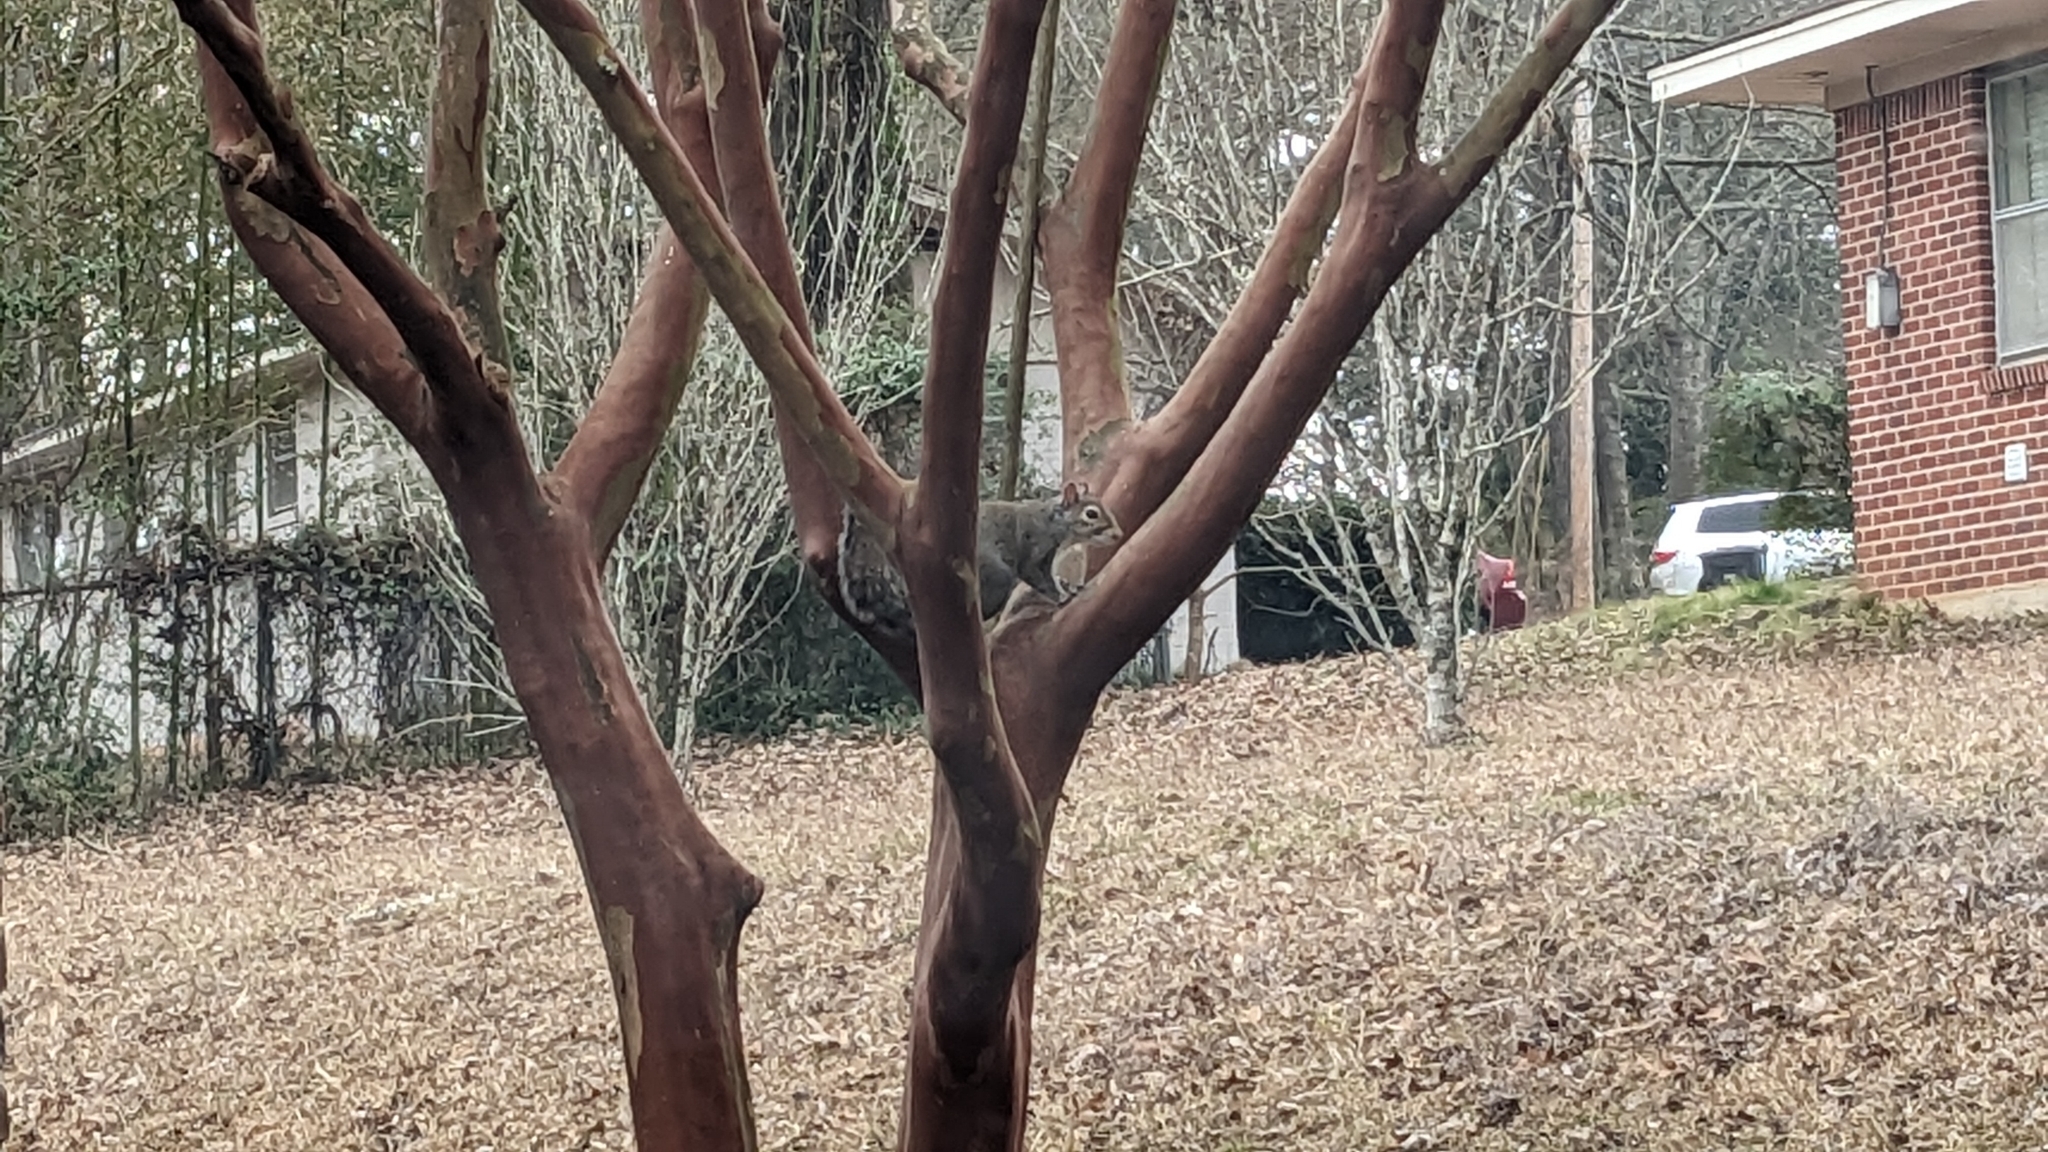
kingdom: Animalia
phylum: Chordata
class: Mammalia
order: Rodentia
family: Sciuridae
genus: Sciurus
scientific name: Sciurus carolinensis
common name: Eastern gray squirrel
